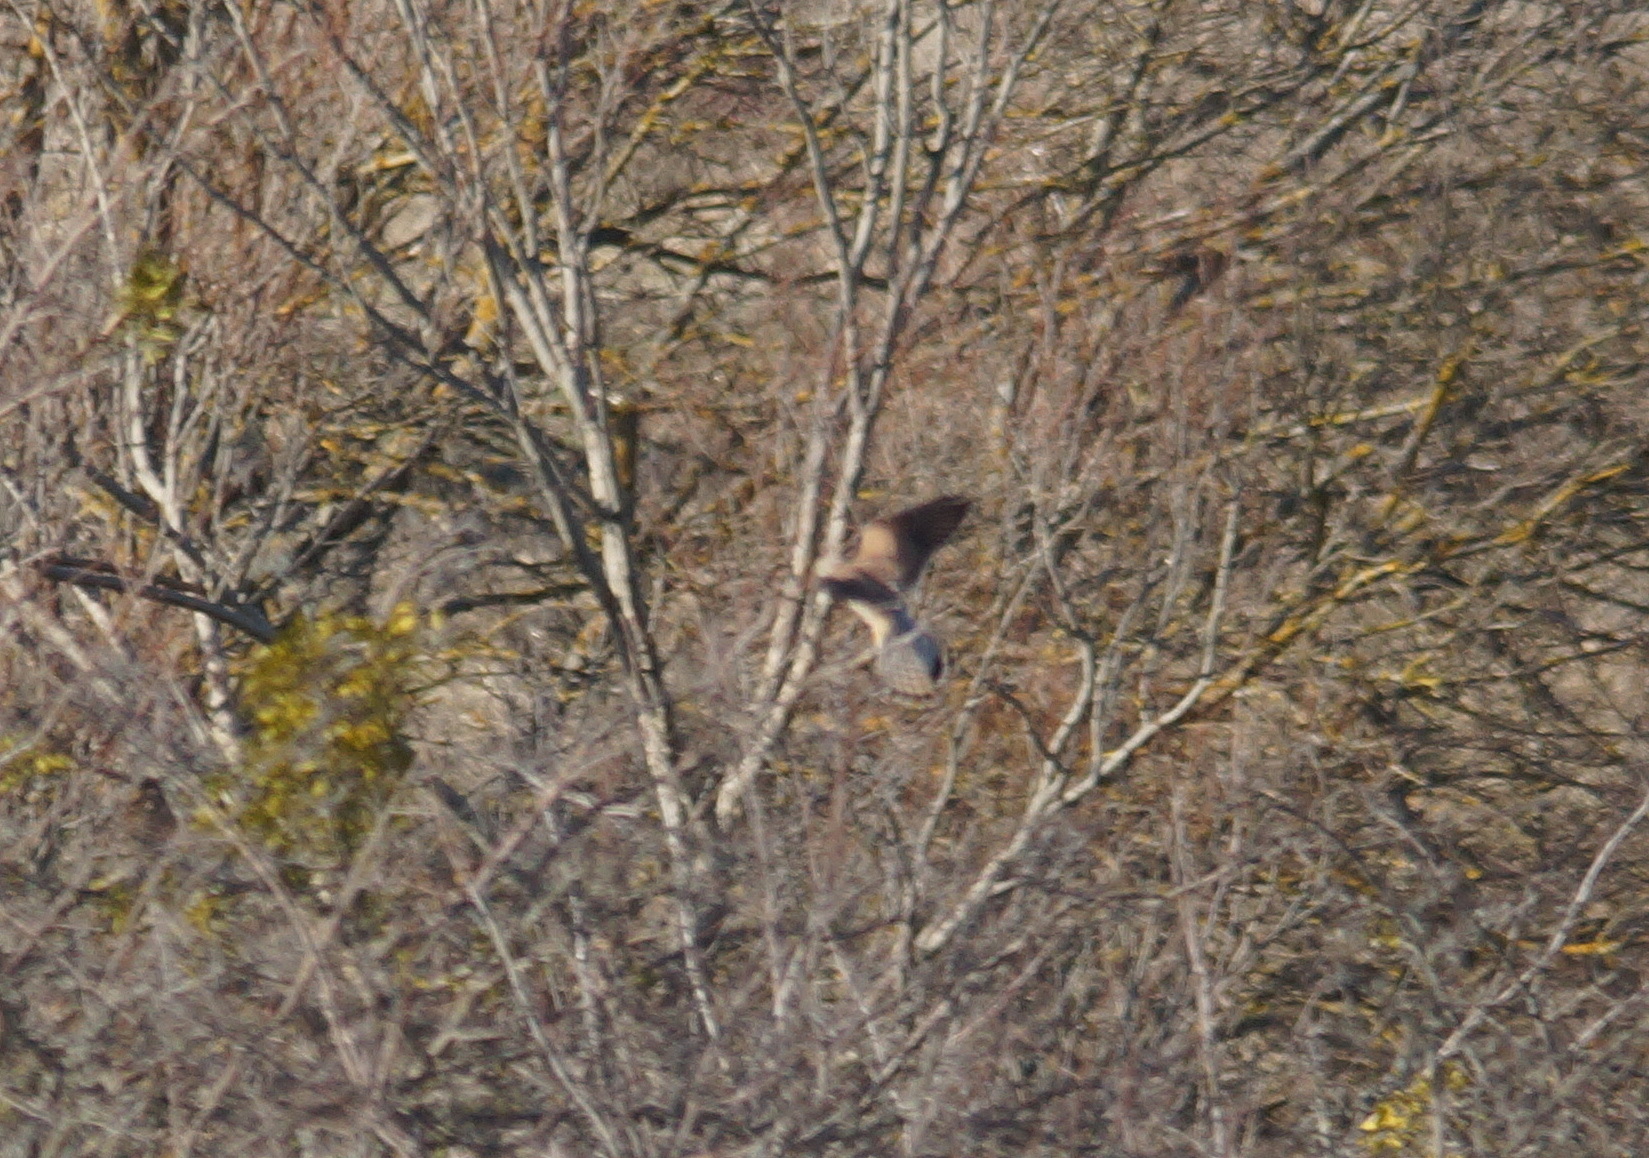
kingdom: Animalia
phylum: Chordata
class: Aves
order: Falconiformes
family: Falconidae
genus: Falco
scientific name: Falco tinnunculus
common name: Common kestrel
